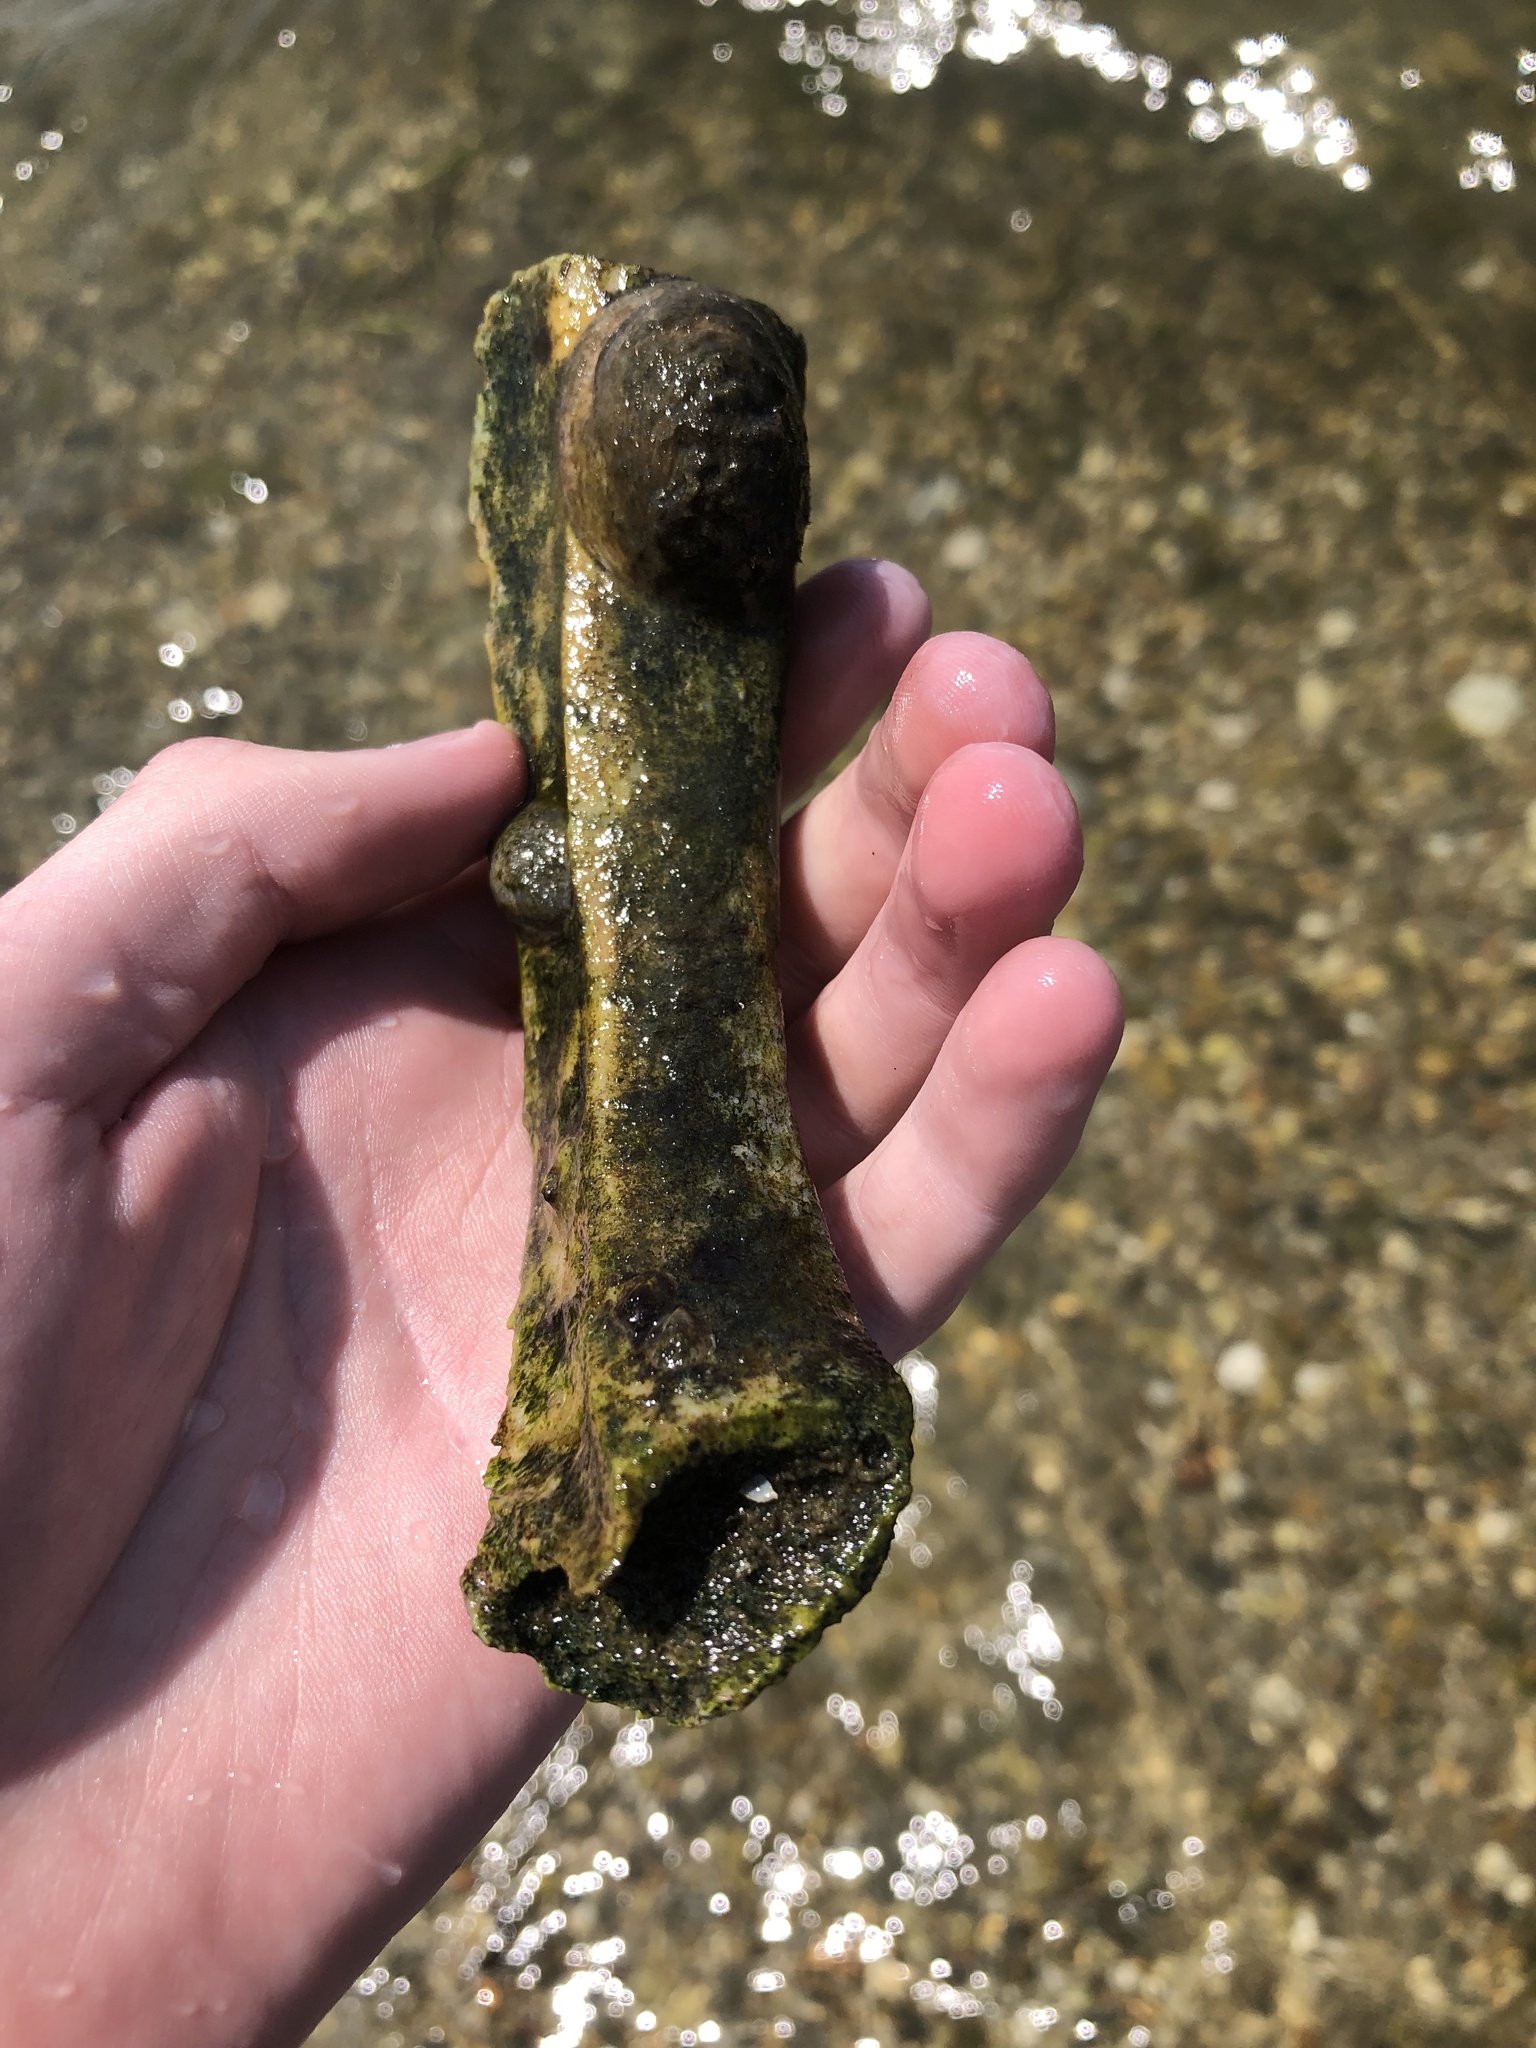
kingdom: Animalia
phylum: Chordata
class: Mammalia
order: Artiodactyla
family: Bovidae
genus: Bos
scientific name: Bos taurus
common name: Domesticated cattle
